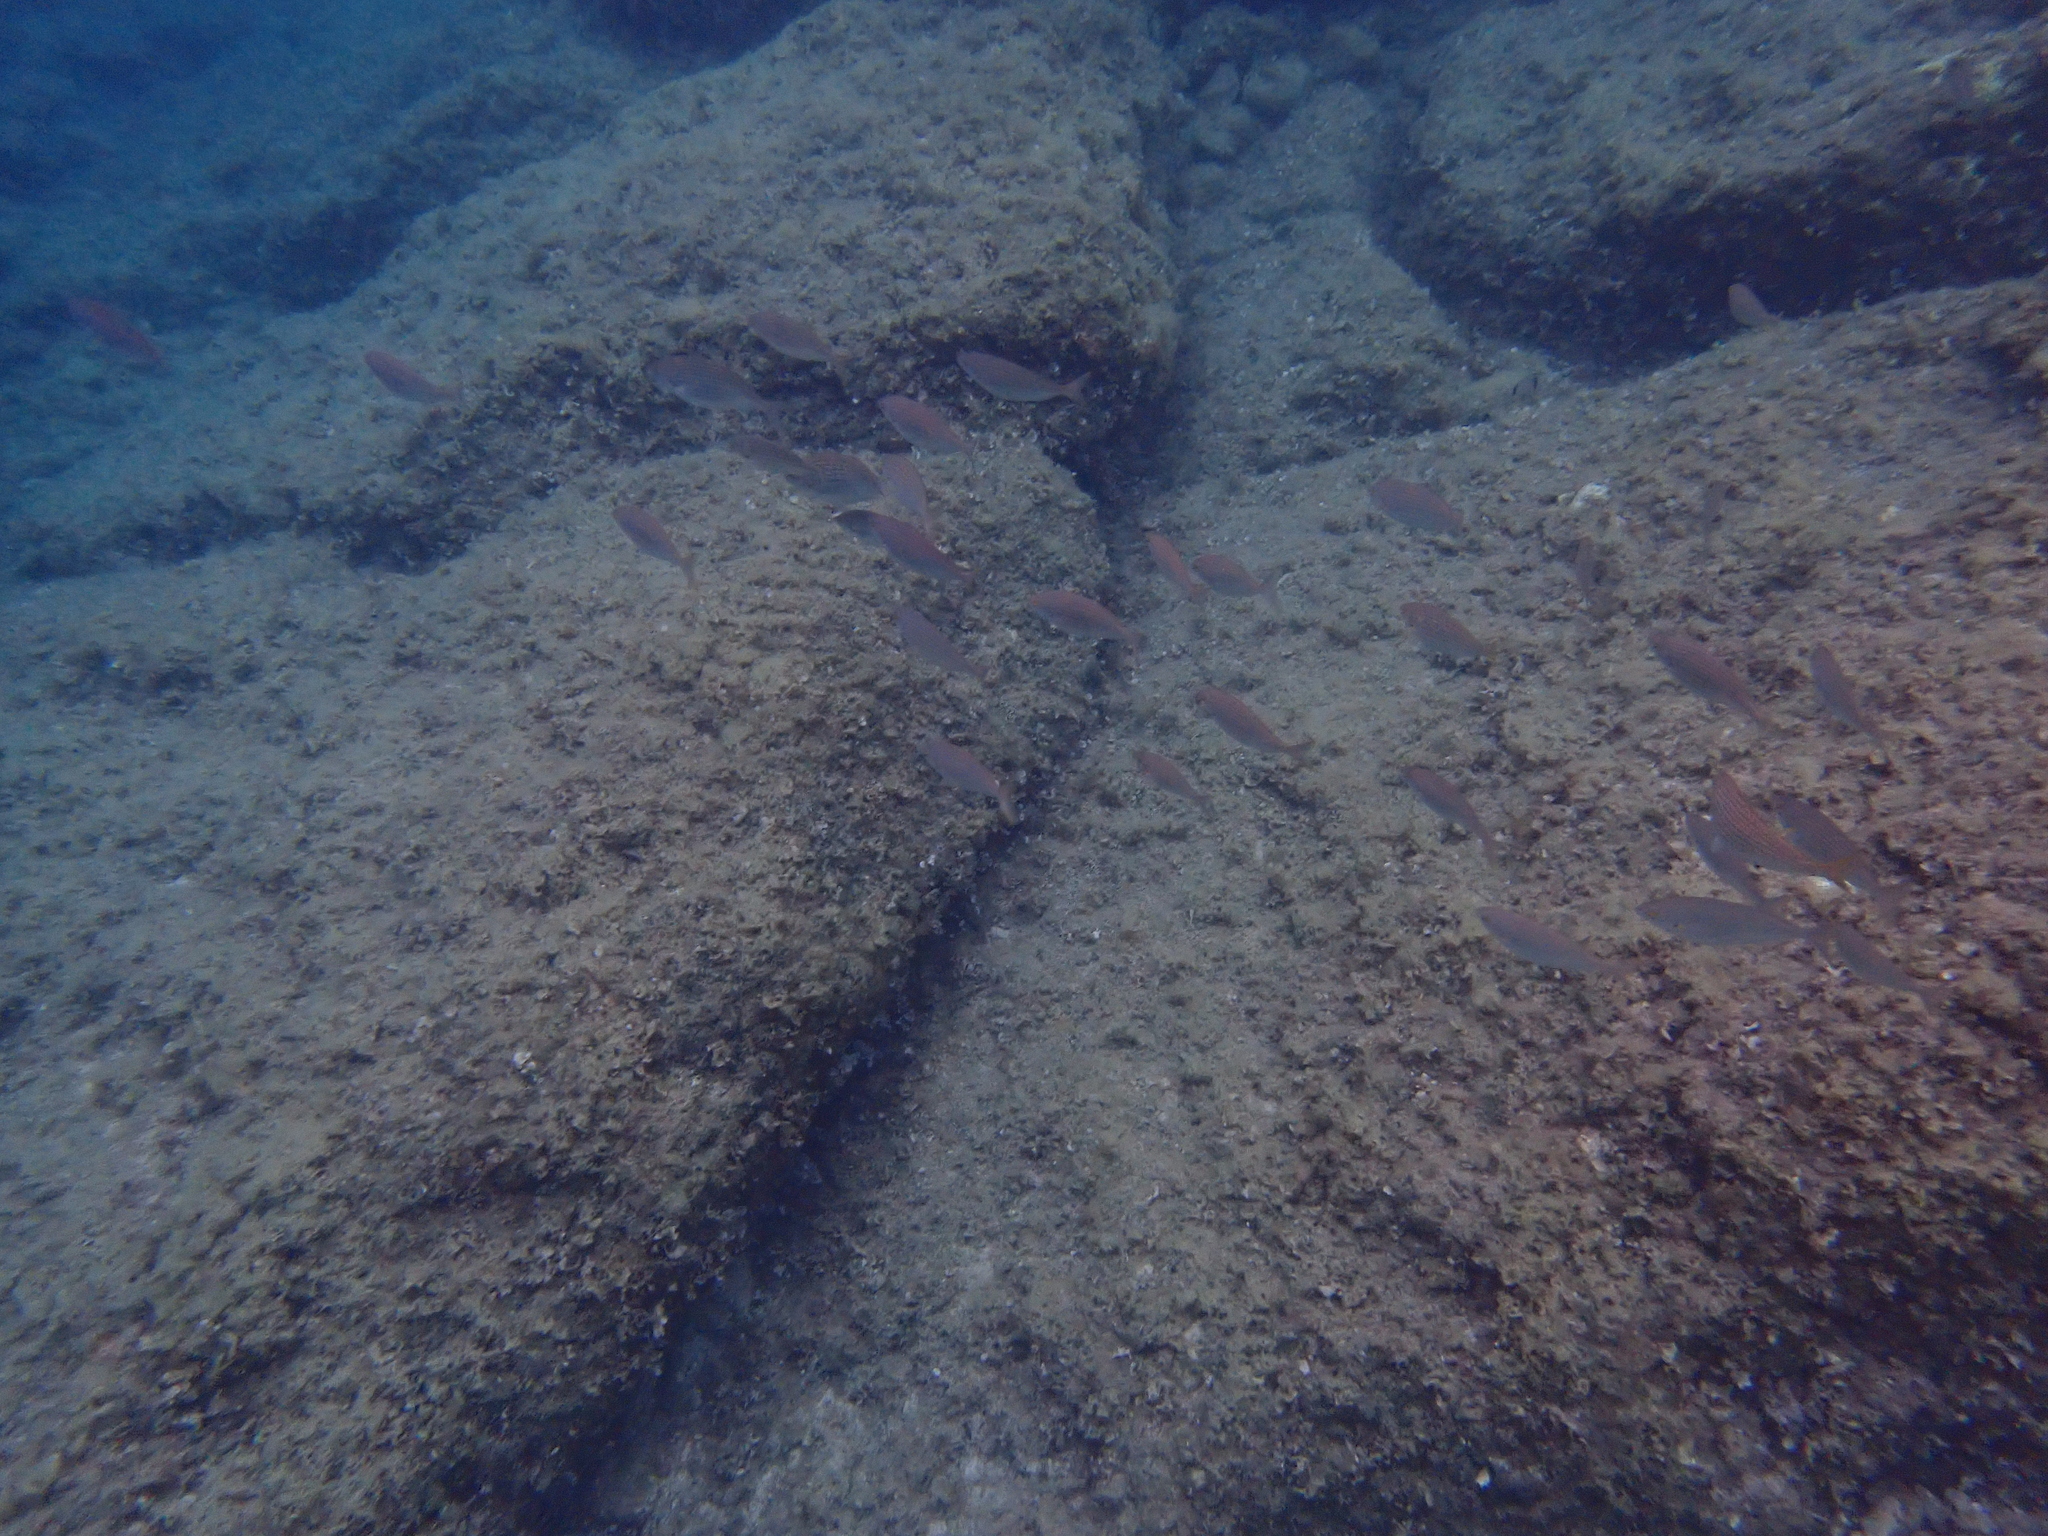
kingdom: Animalia
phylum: Chordata
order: Perciformes
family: Sparidae
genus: Sarpa
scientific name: Sarpa salpa
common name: Salema
